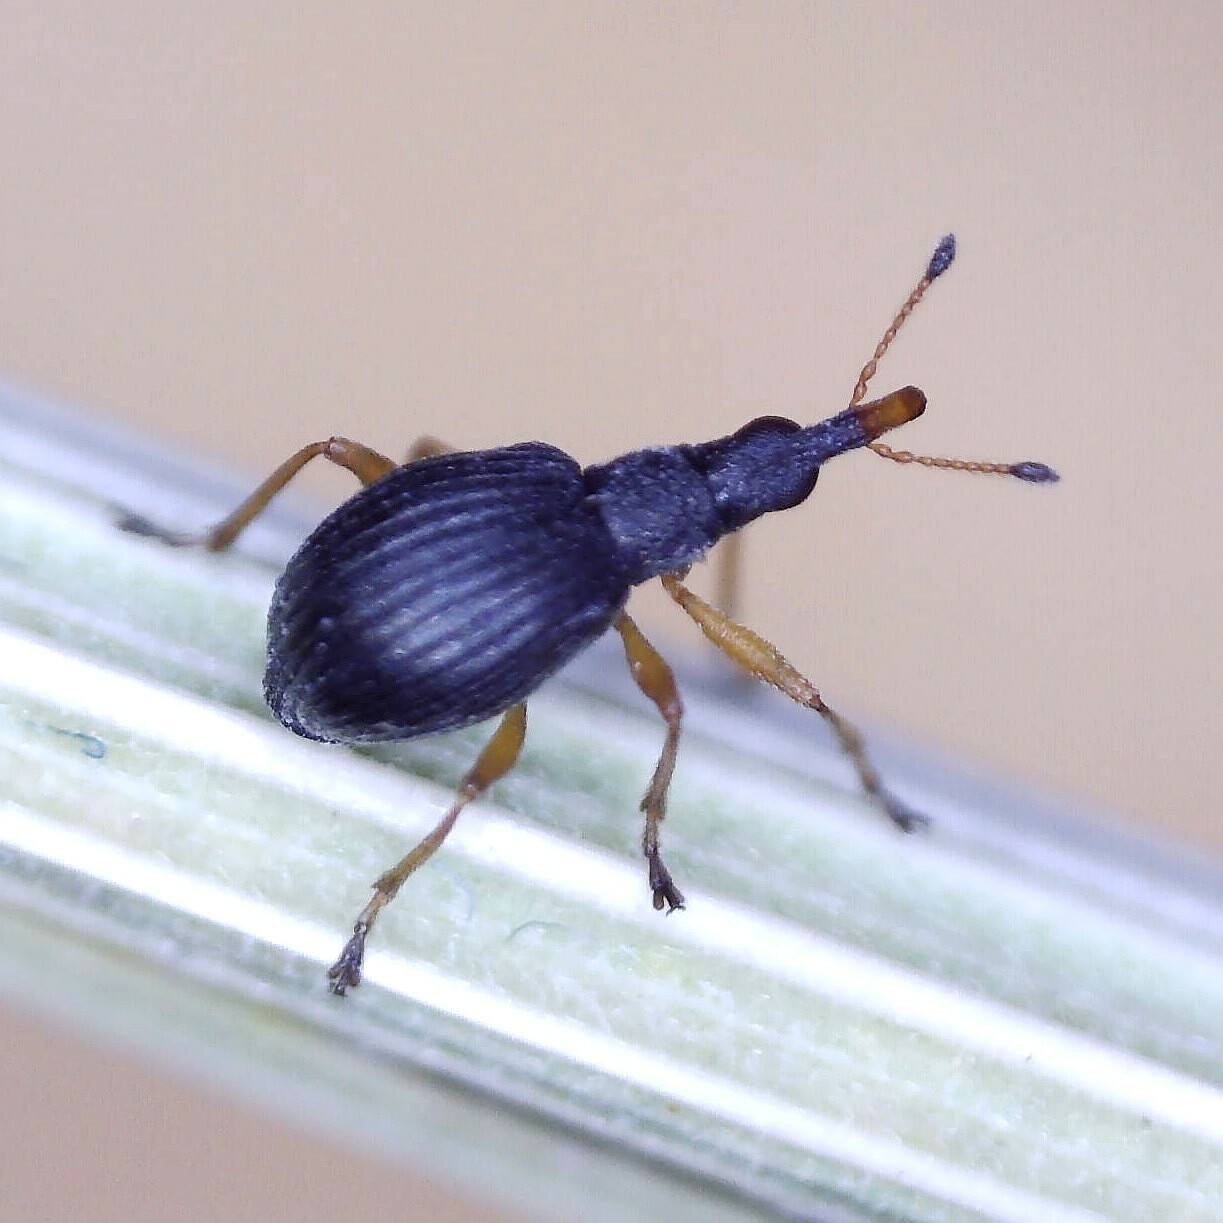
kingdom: Animalia
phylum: Arthropoda
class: Insecta
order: Coleoptera
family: Apionidae
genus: Protapion
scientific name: Protapion nigritarse
